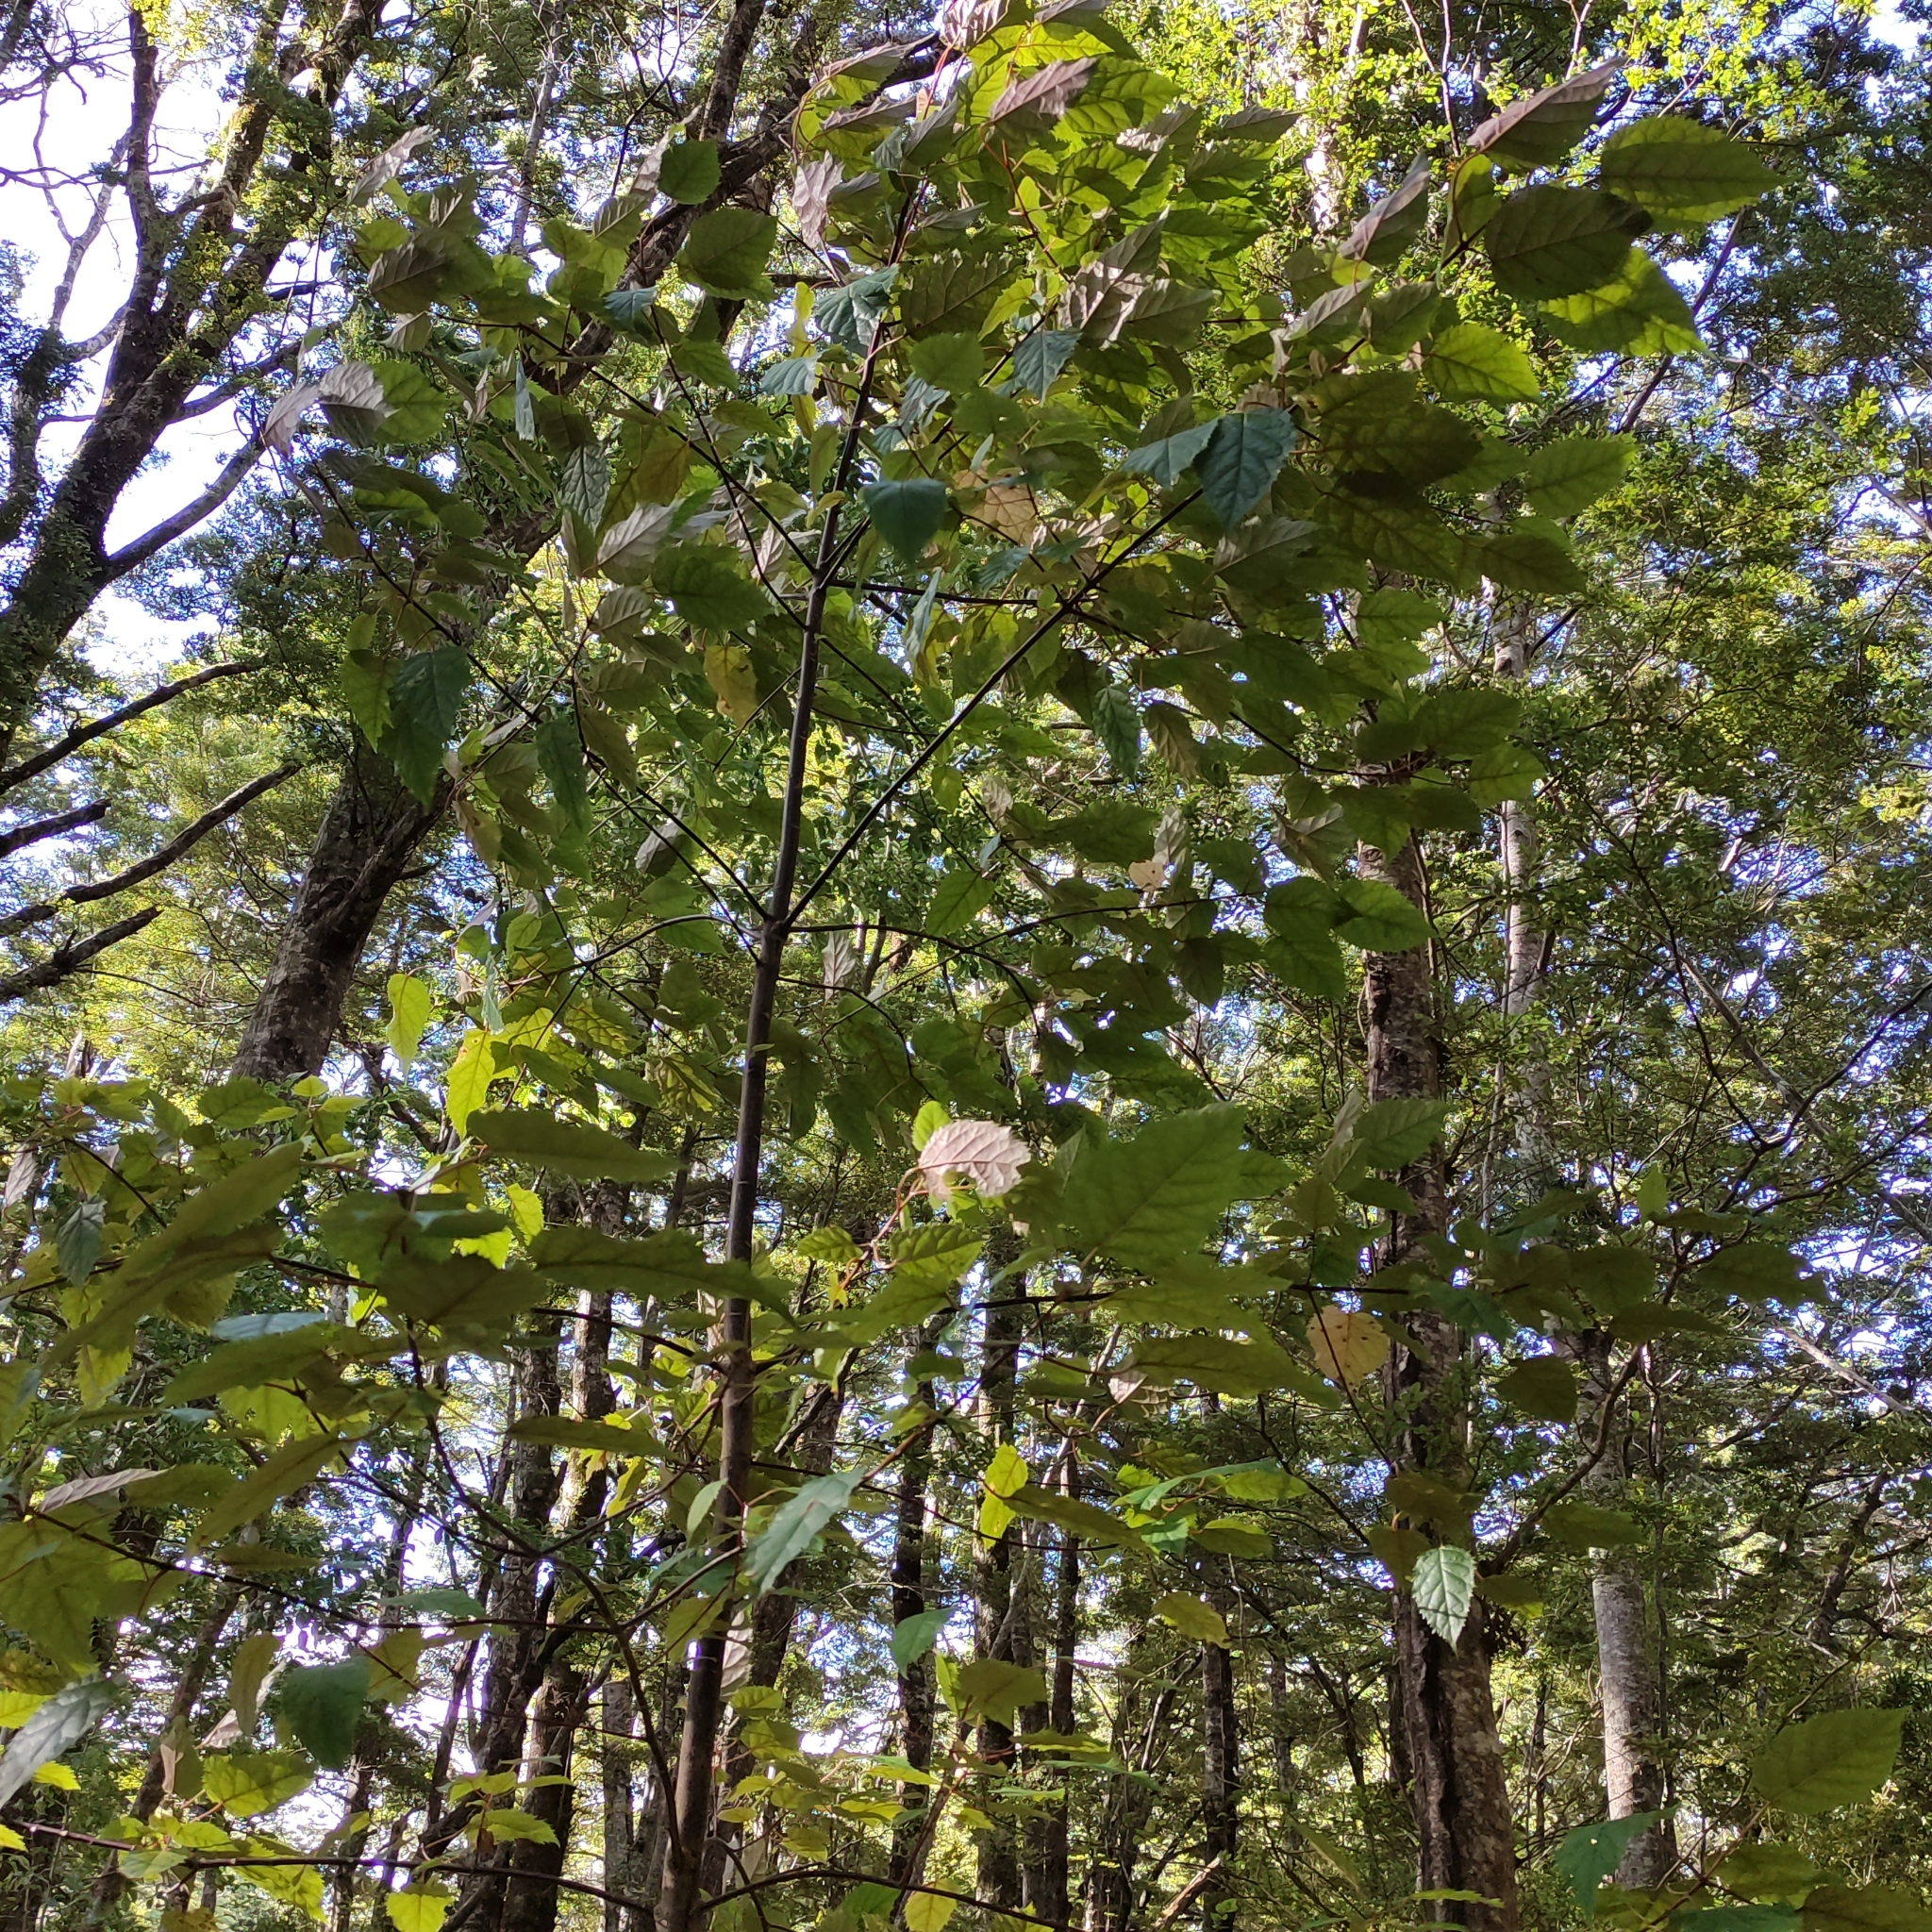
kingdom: Plantae
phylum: Tracheophyta
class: Magnoliopsida
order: Oxalidales
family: Elaeocarpaceae
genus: Aristotelia
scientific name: Aristotelia serrata
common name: New zealand wineberry
